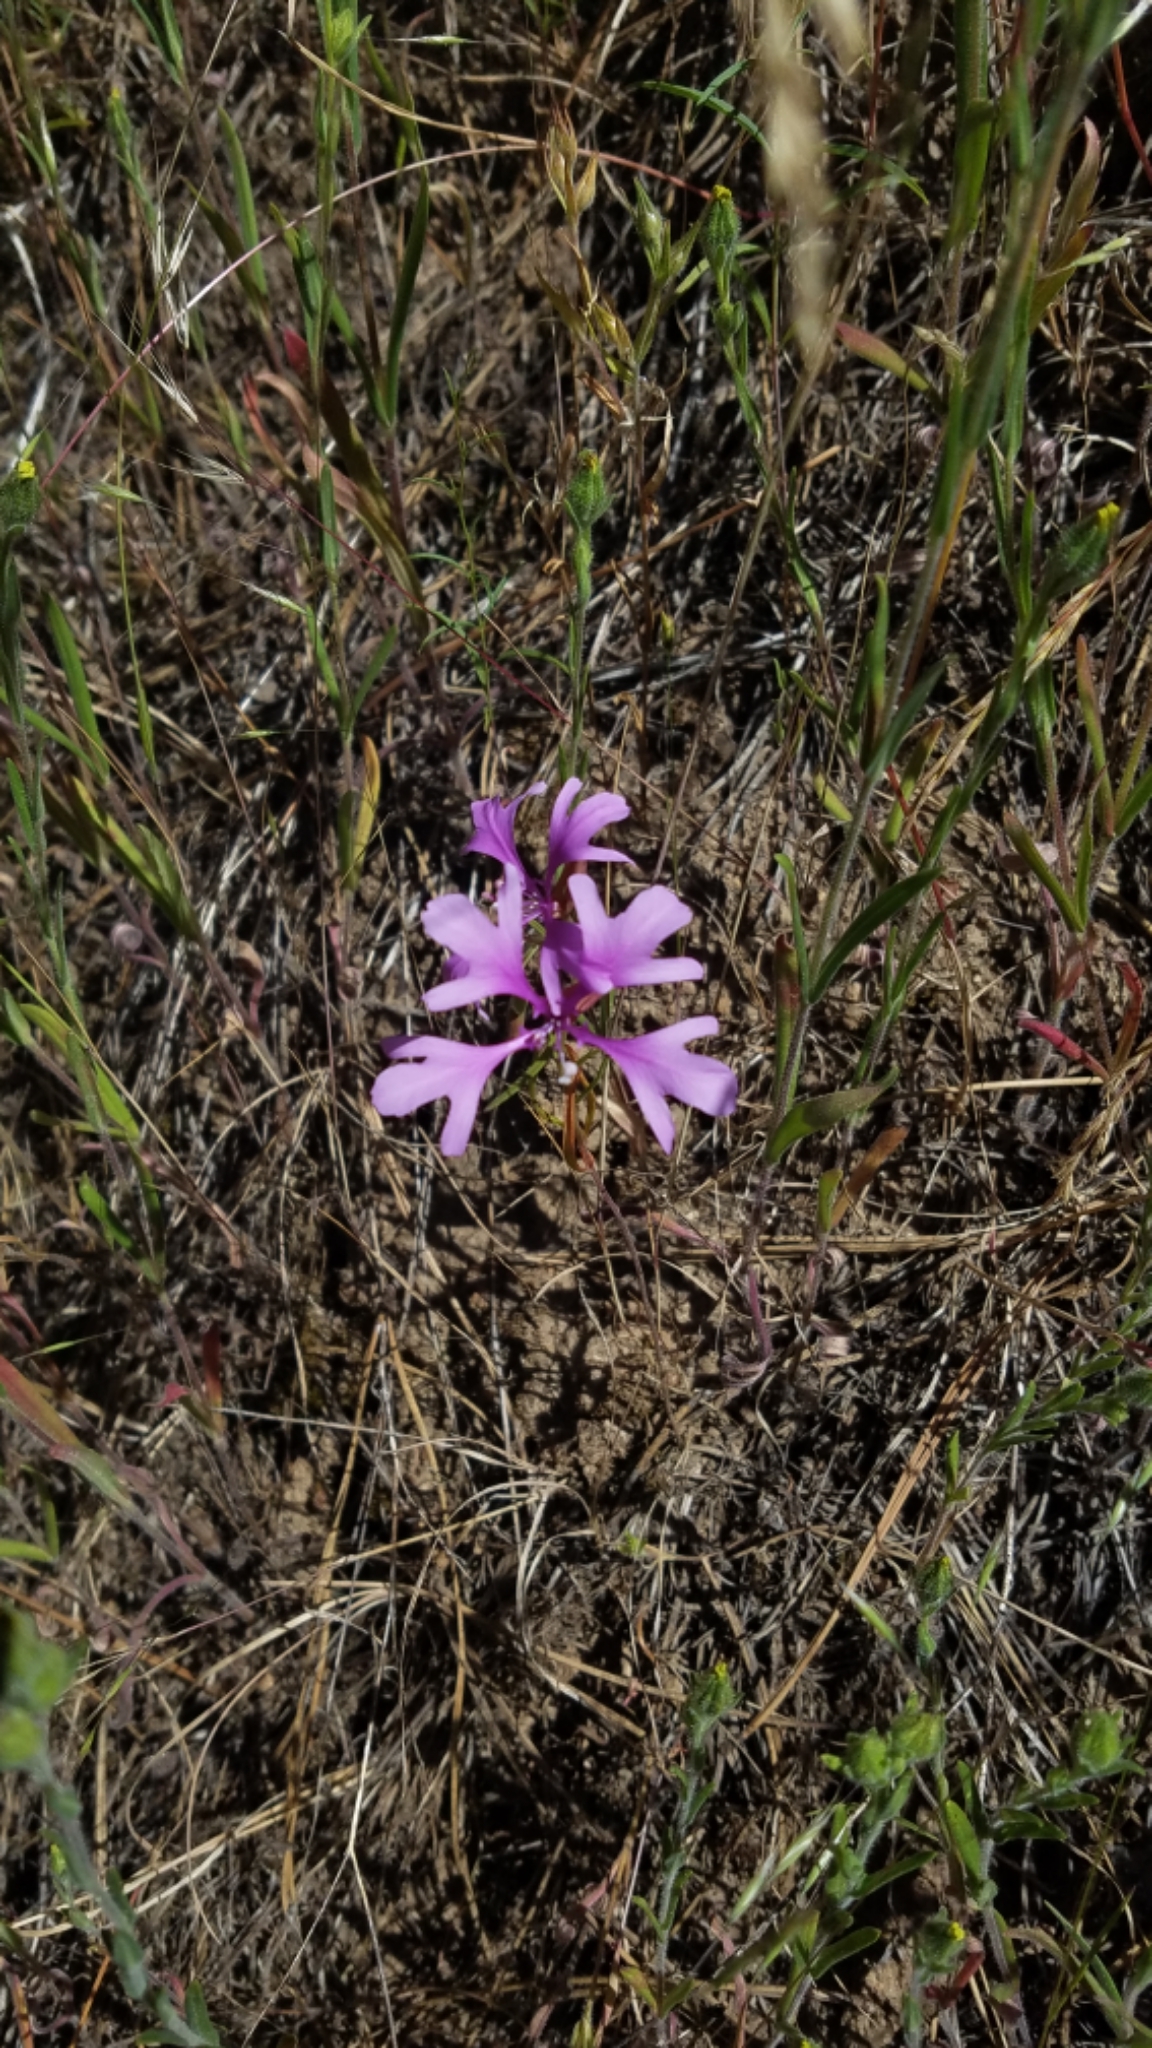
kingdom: Plantae
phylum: Tracheophyta
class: Magnoliopsida
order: Myrtales
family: Onagraceae
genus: Clarkia
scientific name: Clarkia pulchella
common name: Deer horn
